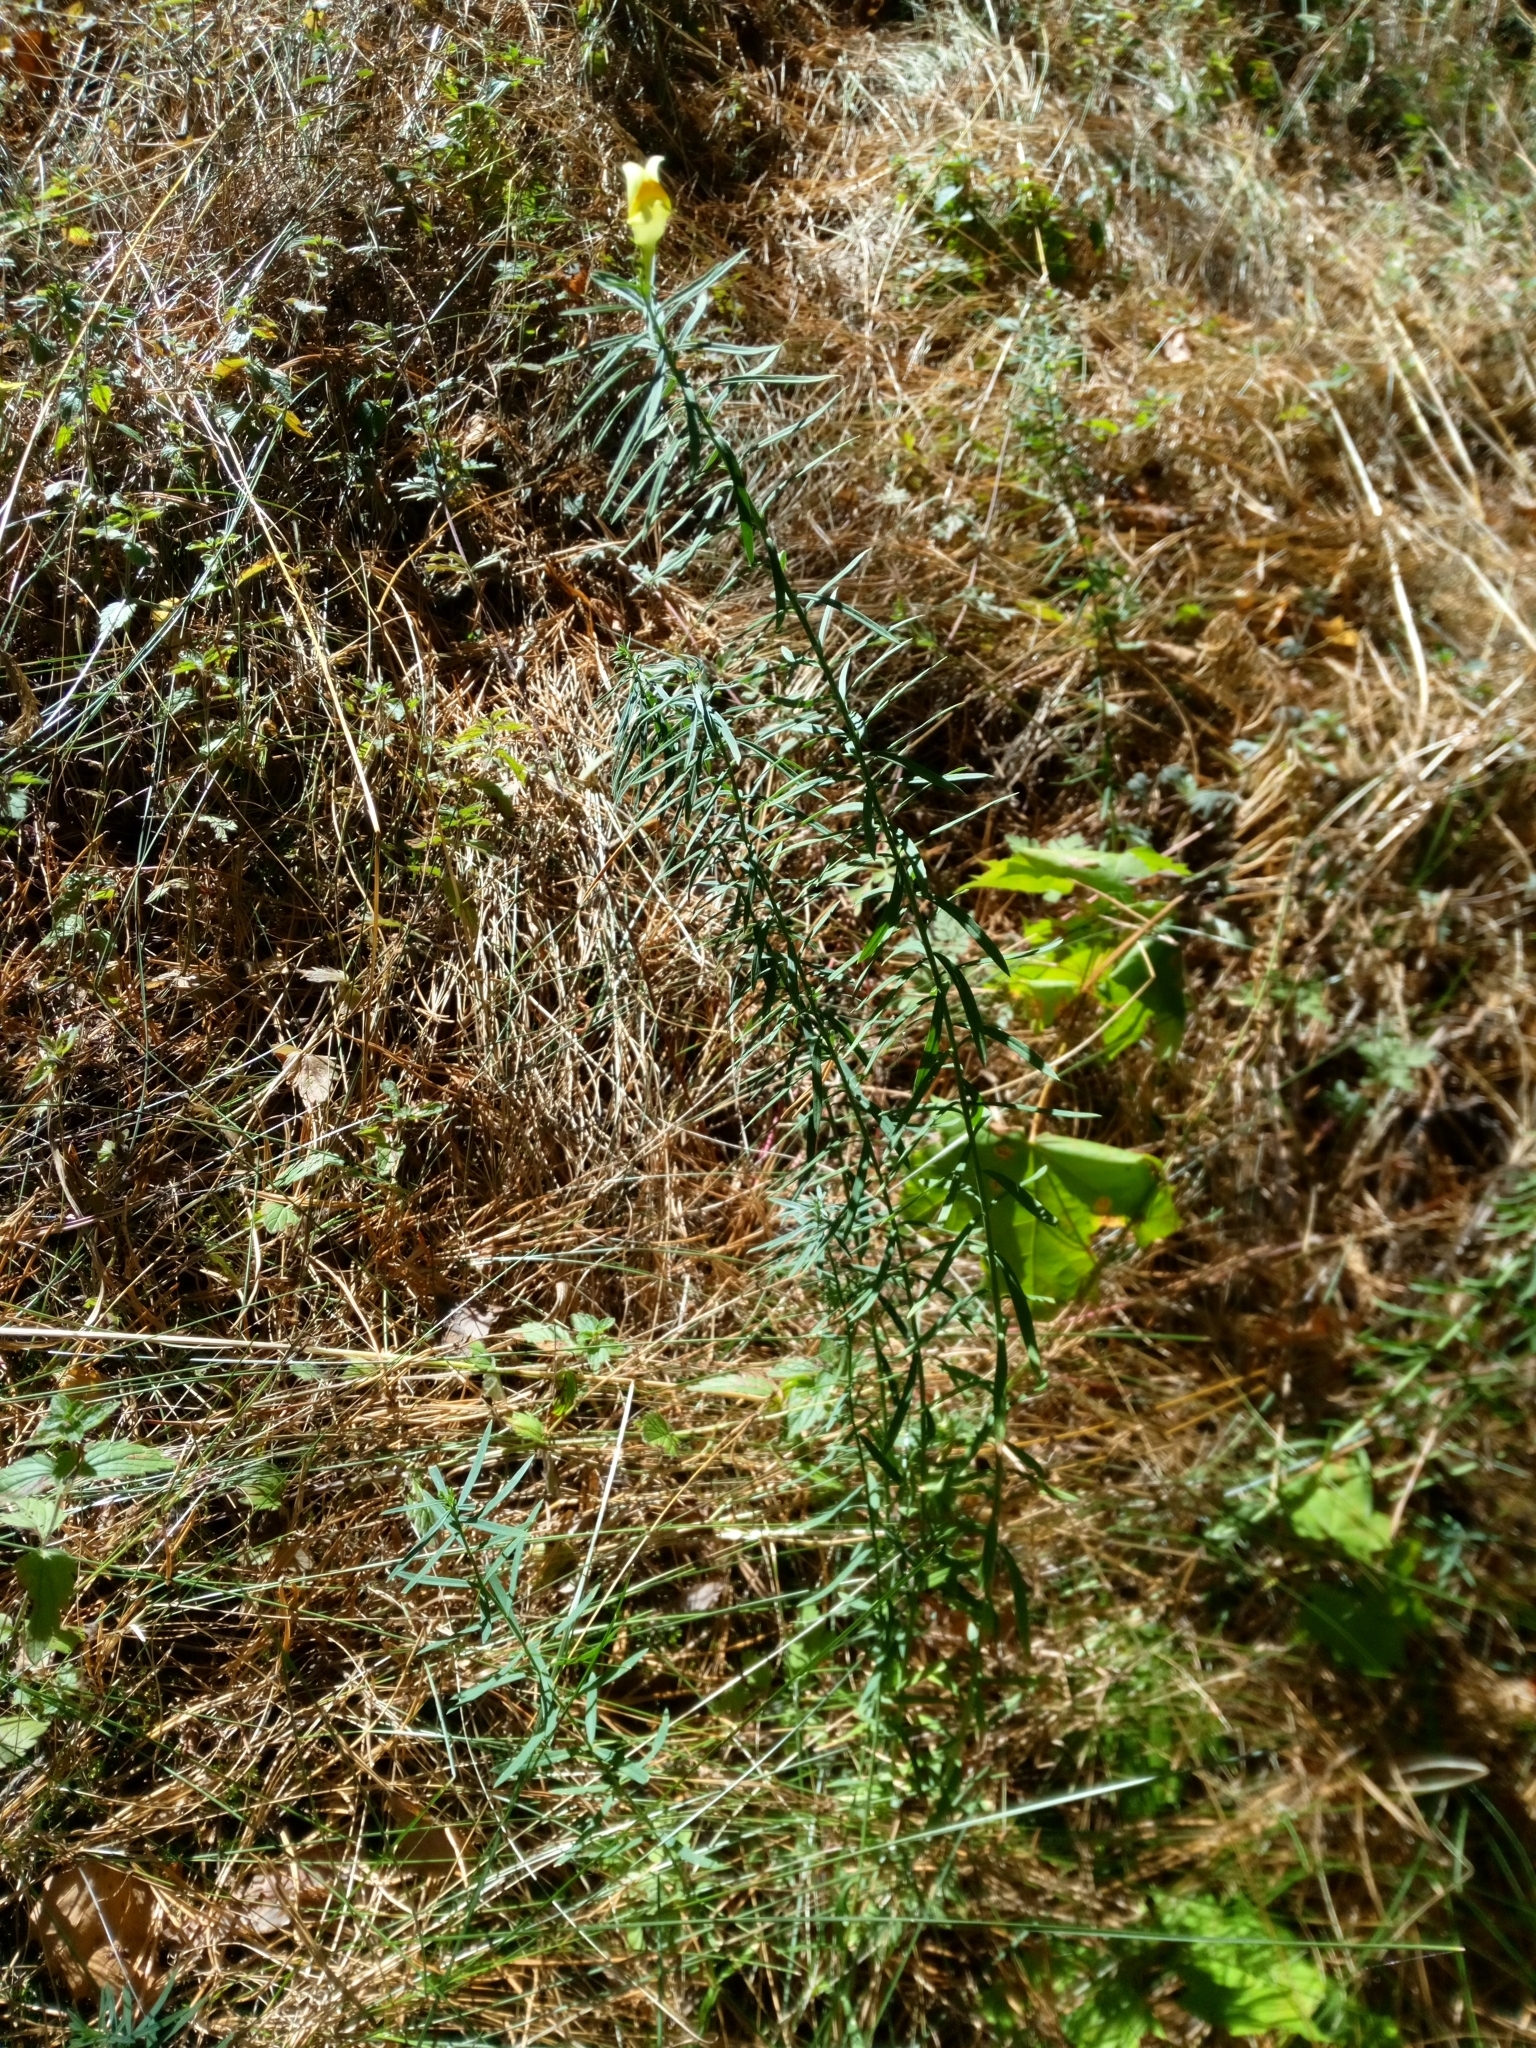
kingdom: Plantae
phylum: Tracheophyta
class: Magnoliopsida
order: Lamiales
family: Plantaginaceae
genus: Linaria
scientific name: Linaria vulgaris
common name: Butter and eggs
